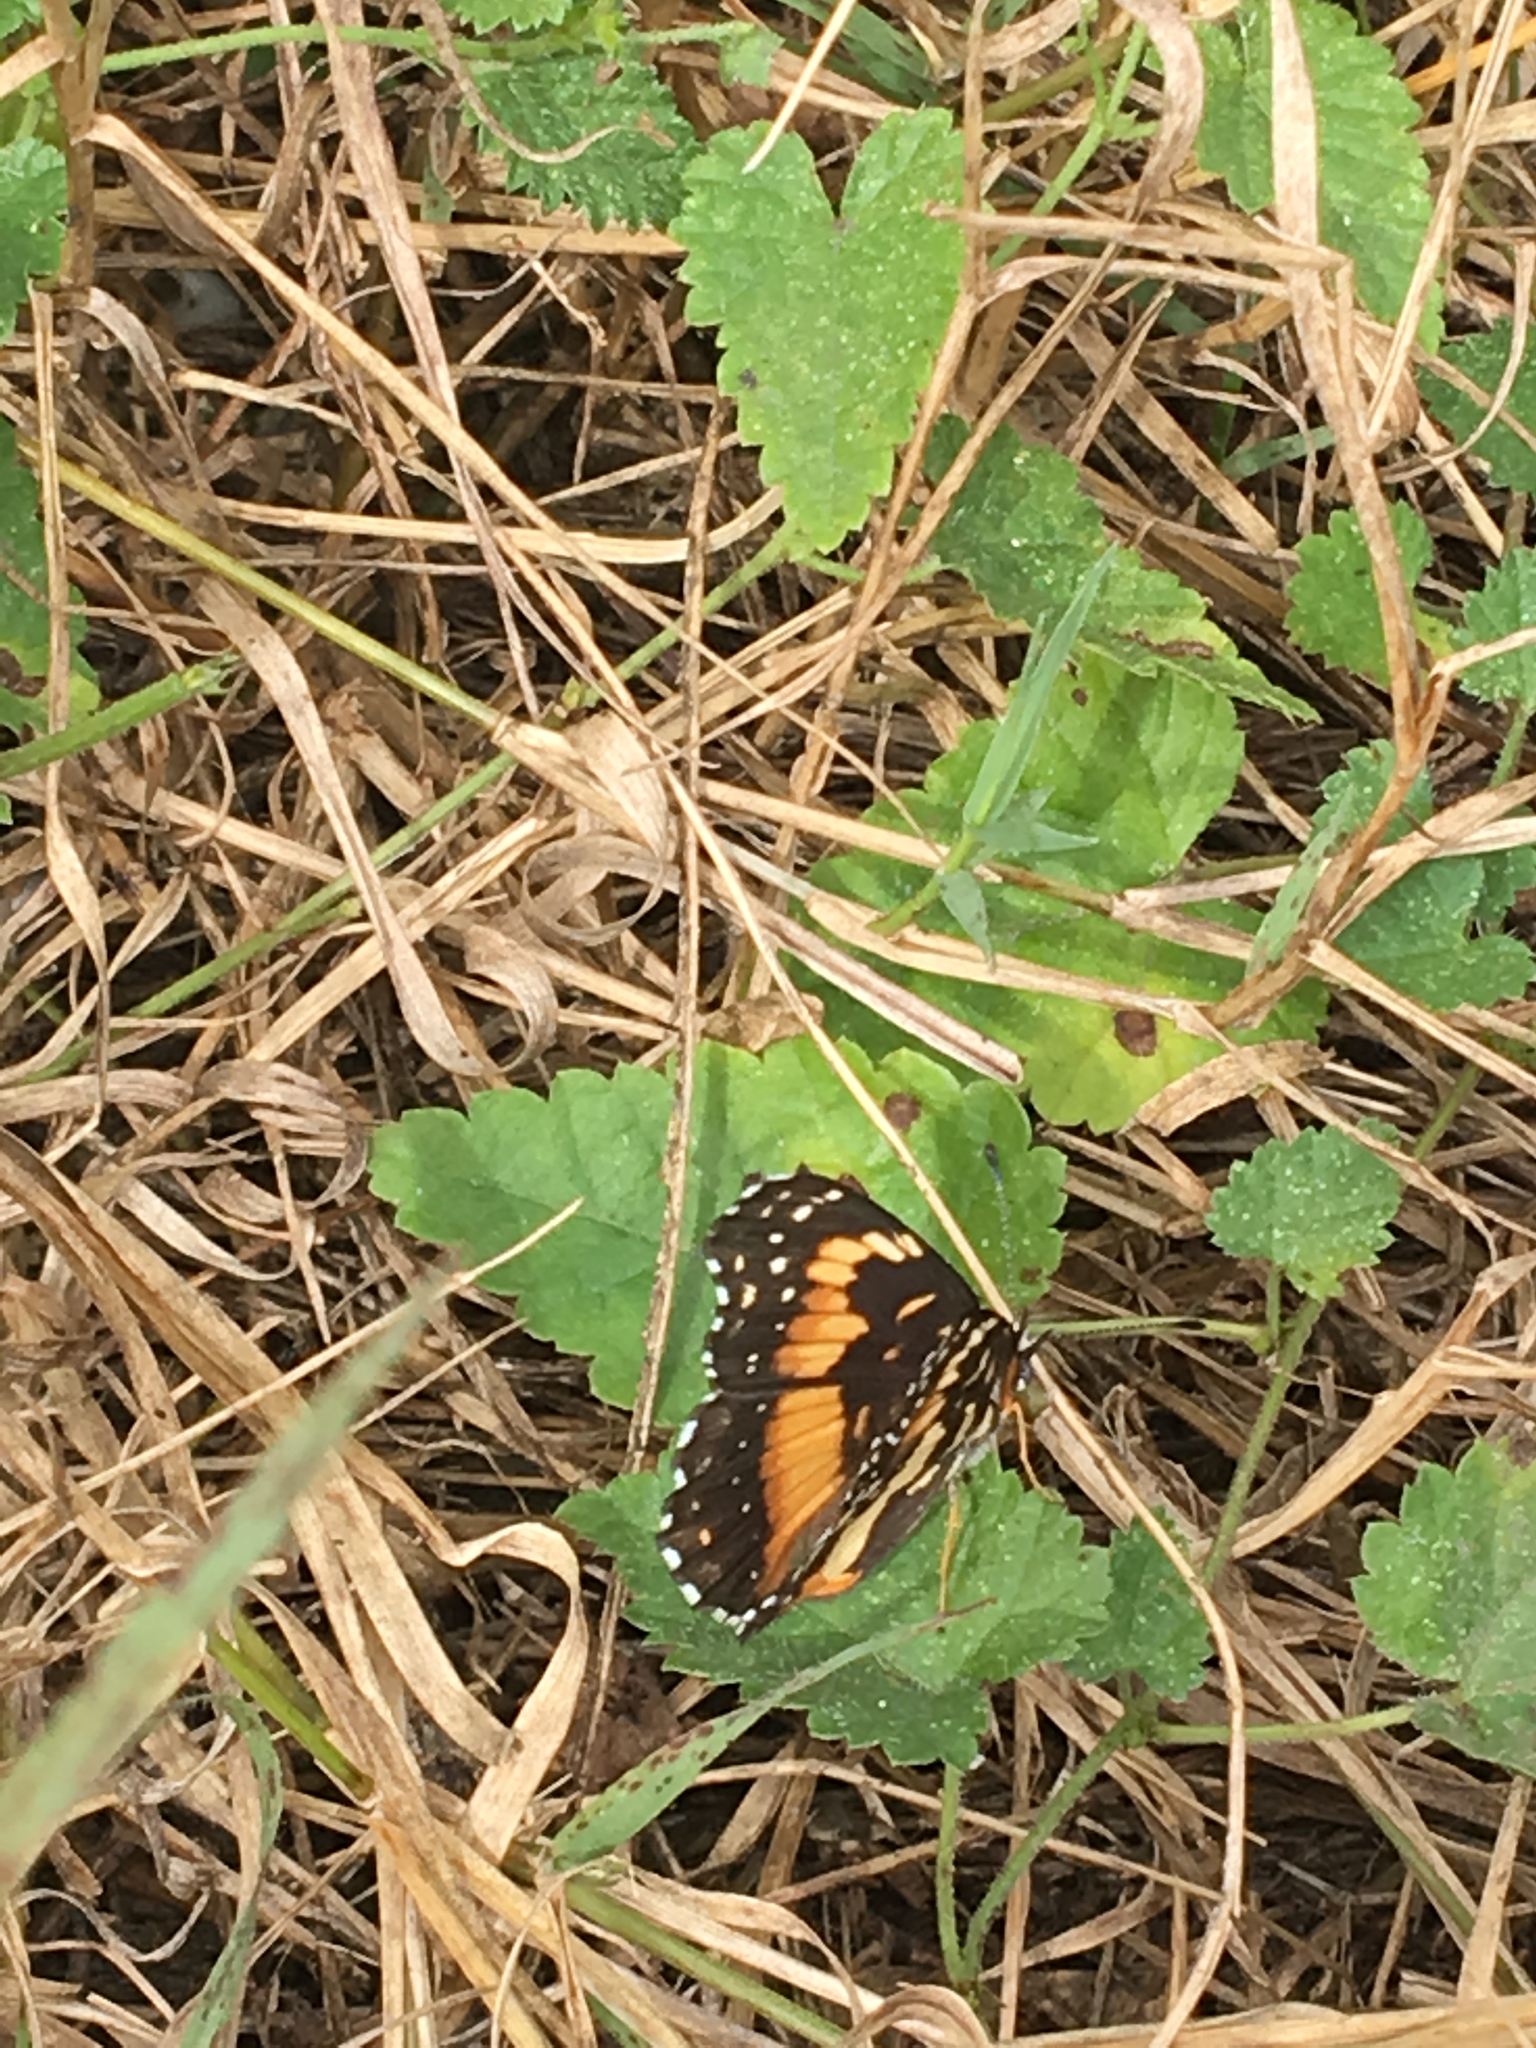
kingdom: Animalia
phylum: Arthropoda
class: Insecta
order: Lepidoptera
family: Nymphalidae
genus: Chlosyne
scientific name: Chlosyne lacinia
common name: Bordered patch
